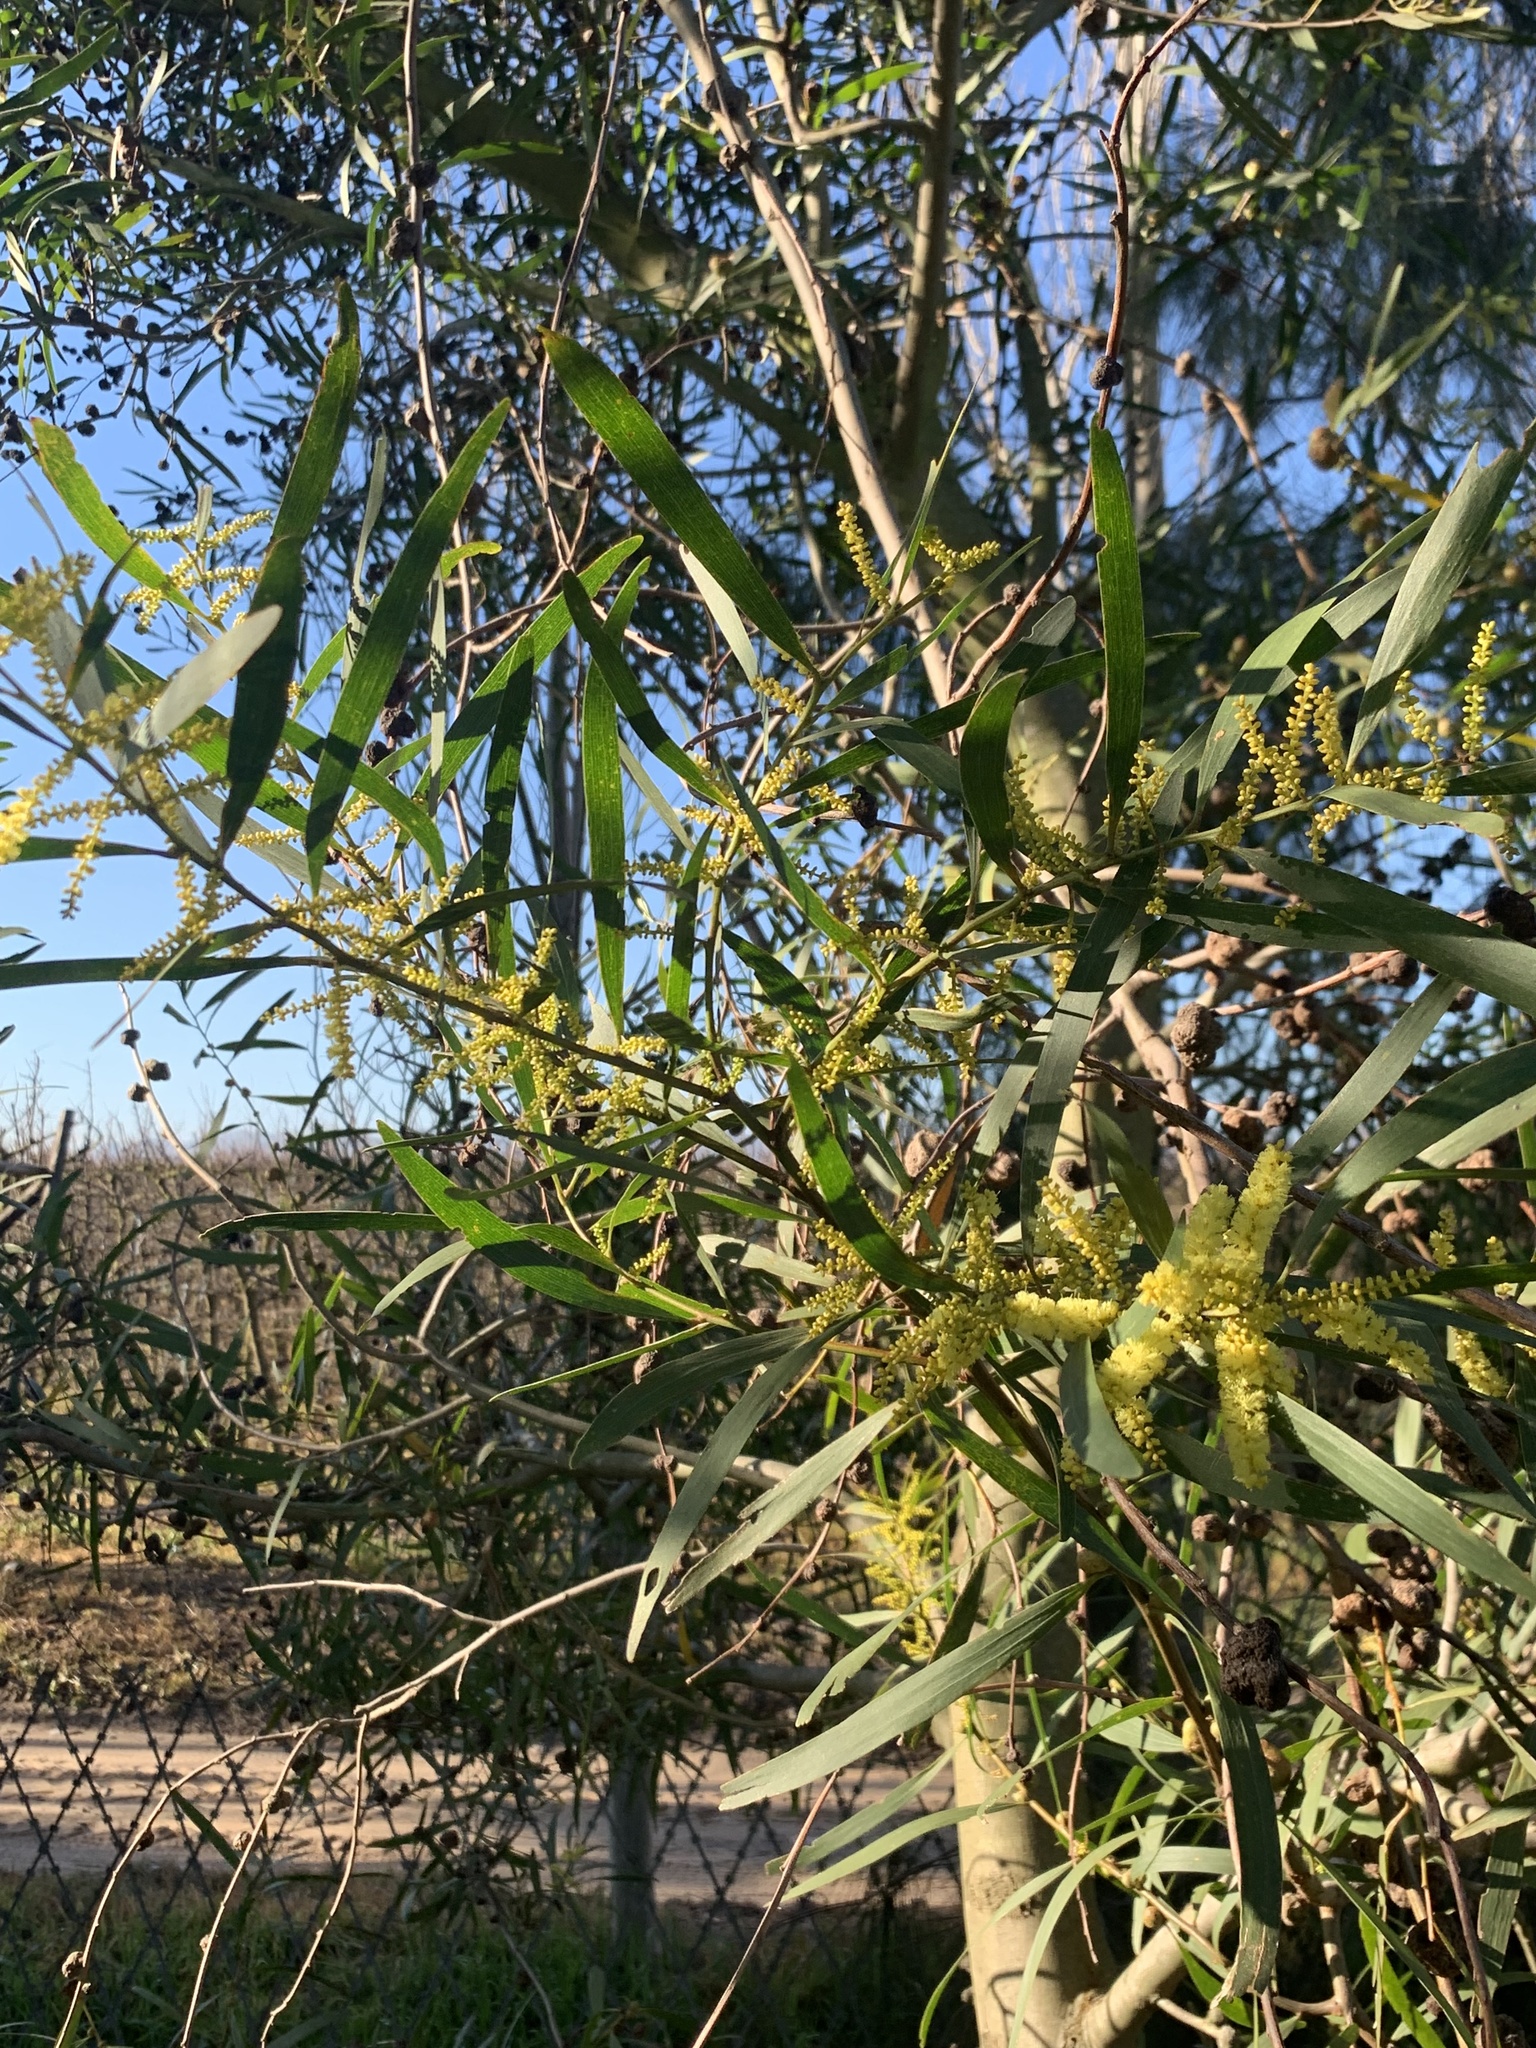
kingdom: Plantae
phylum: Tracheophyta
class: Magnoliopsida
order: Fabales
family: Fabaceae
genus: Acacia
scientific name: Acacia longifolia
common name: Sydney golden wattle
